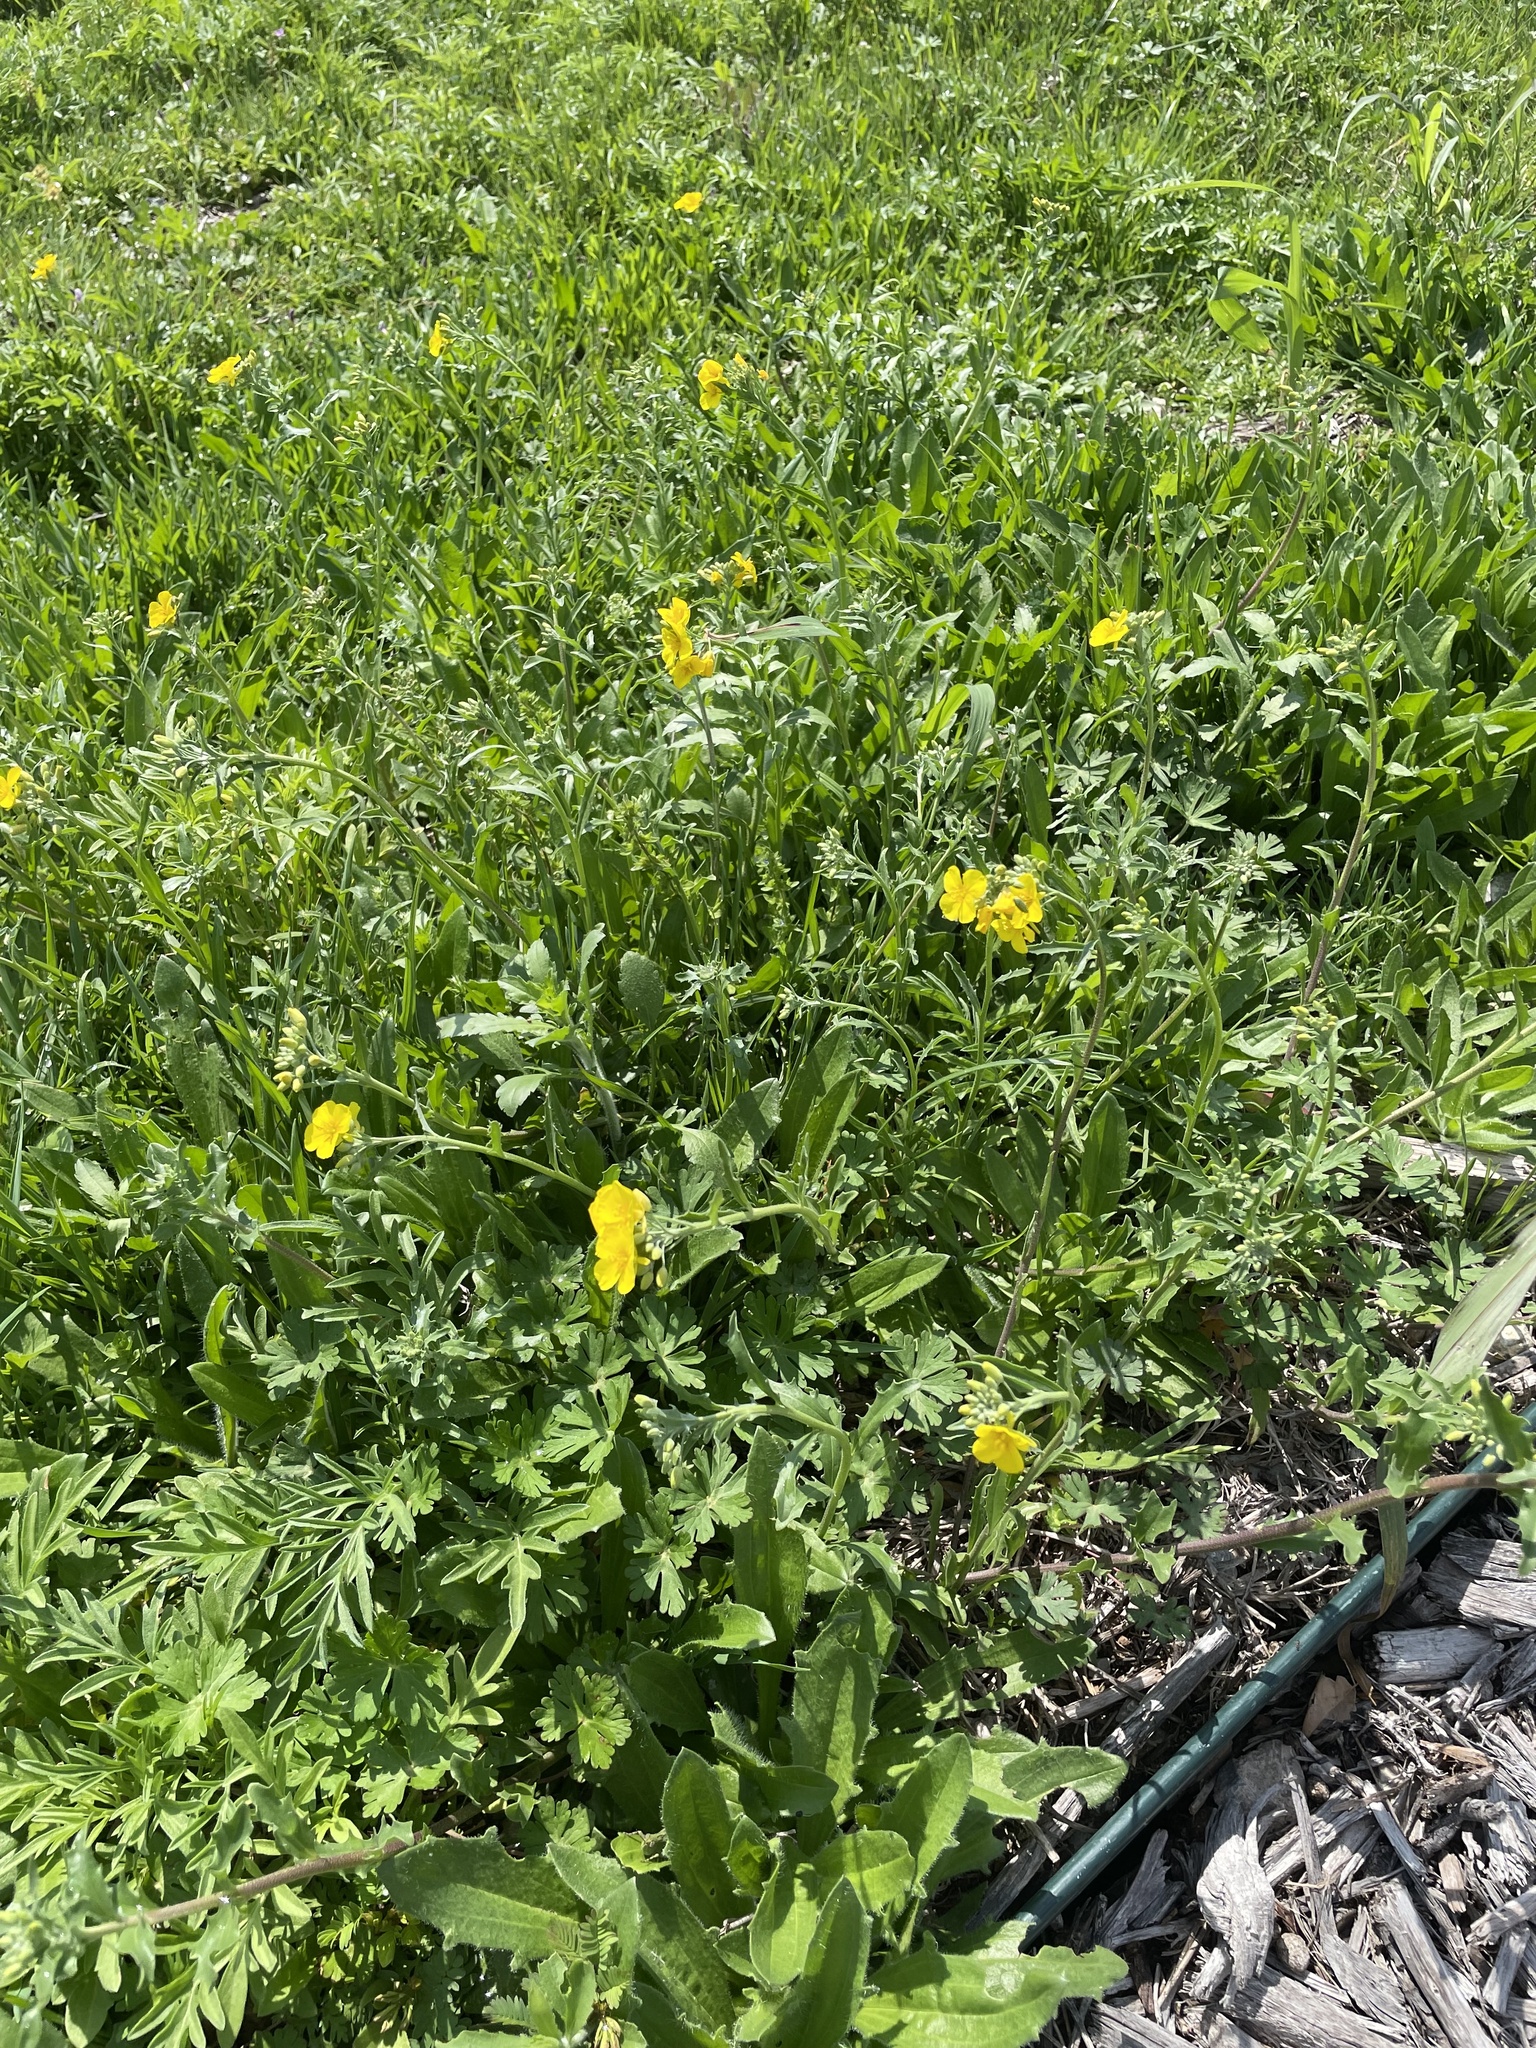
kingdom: Plantae
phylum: Tracheophyta
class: Magnoliopsida
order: Brassicales
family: Brassicaceae
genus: Physaria
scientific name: Physaria gracilis
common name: Spreading bladderpod
